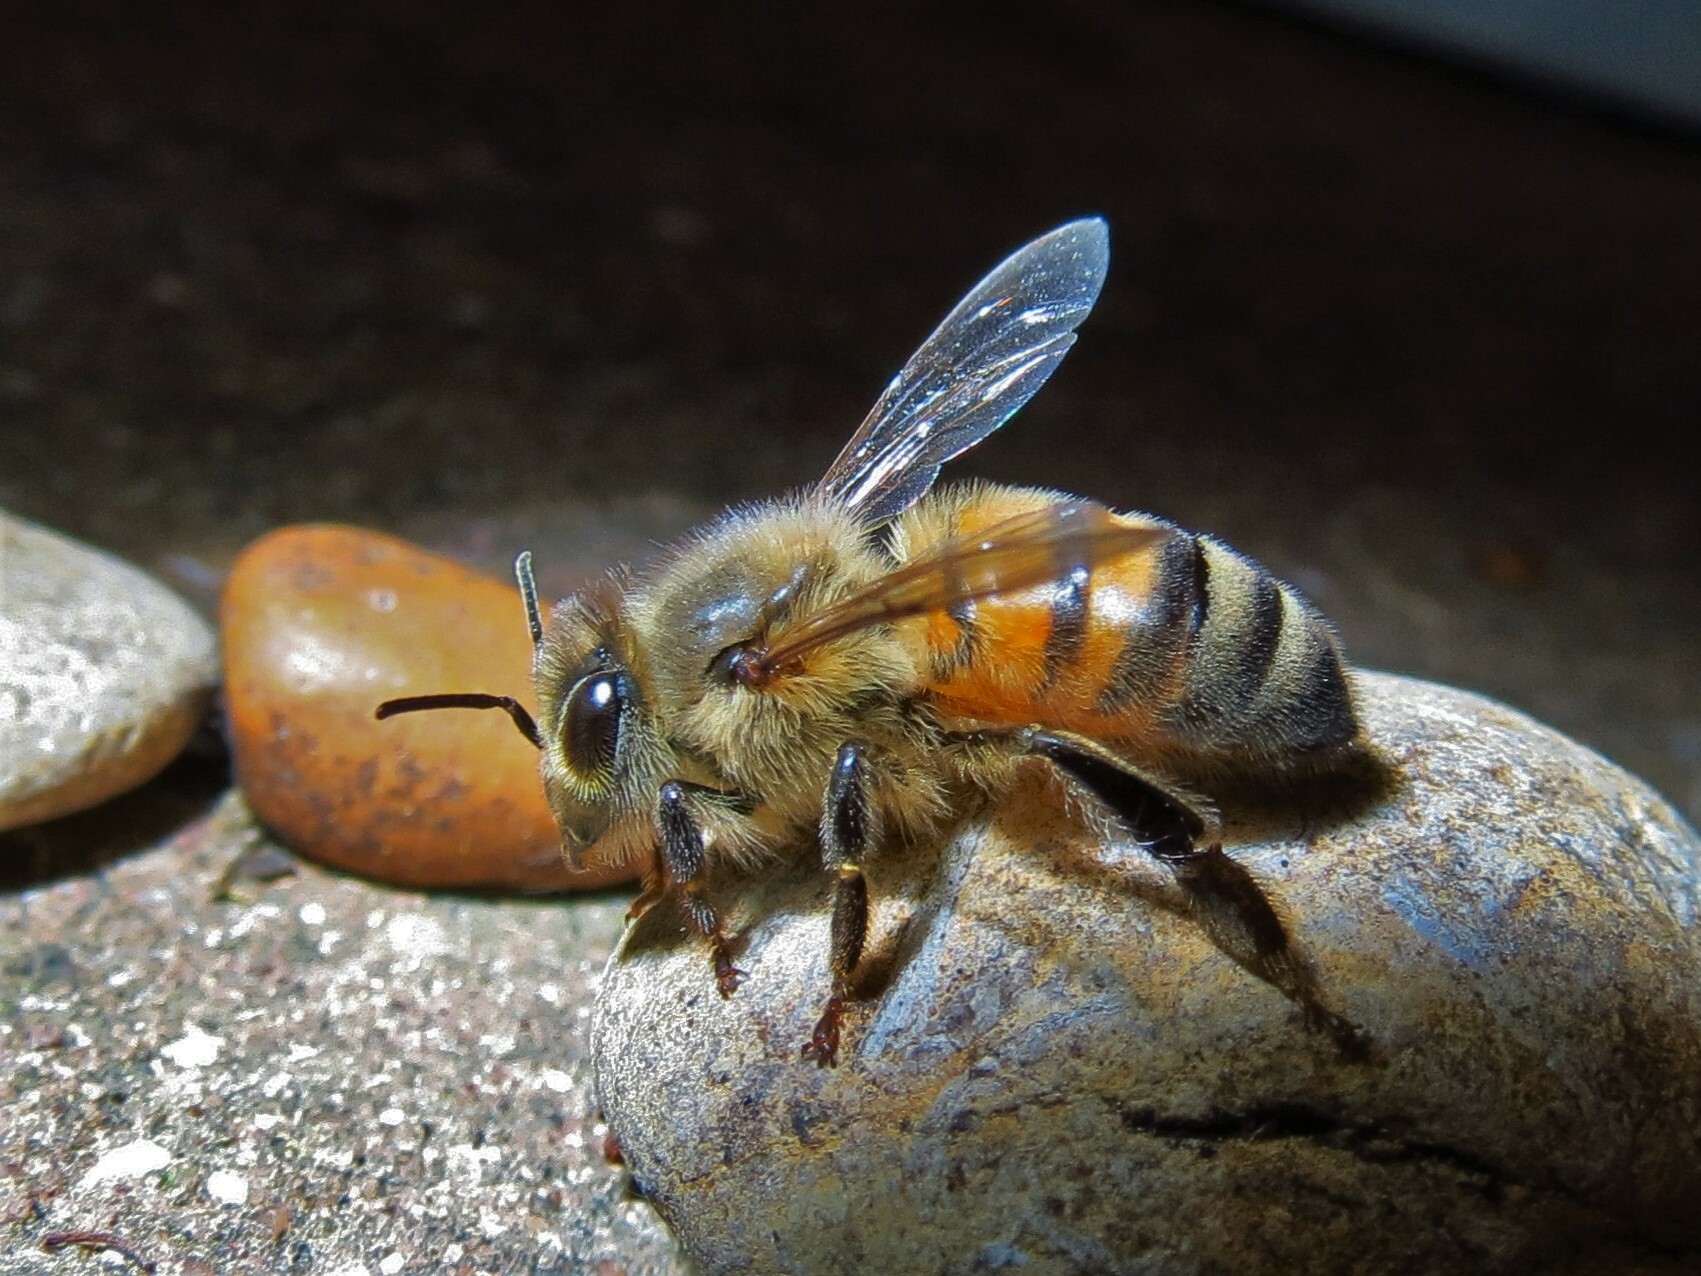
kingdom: Animalia
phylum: Arthropoda
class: Insecta
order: Hymenoptera
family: Apidae
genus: Apis
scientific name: Apis mellifera
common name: Honey bee
